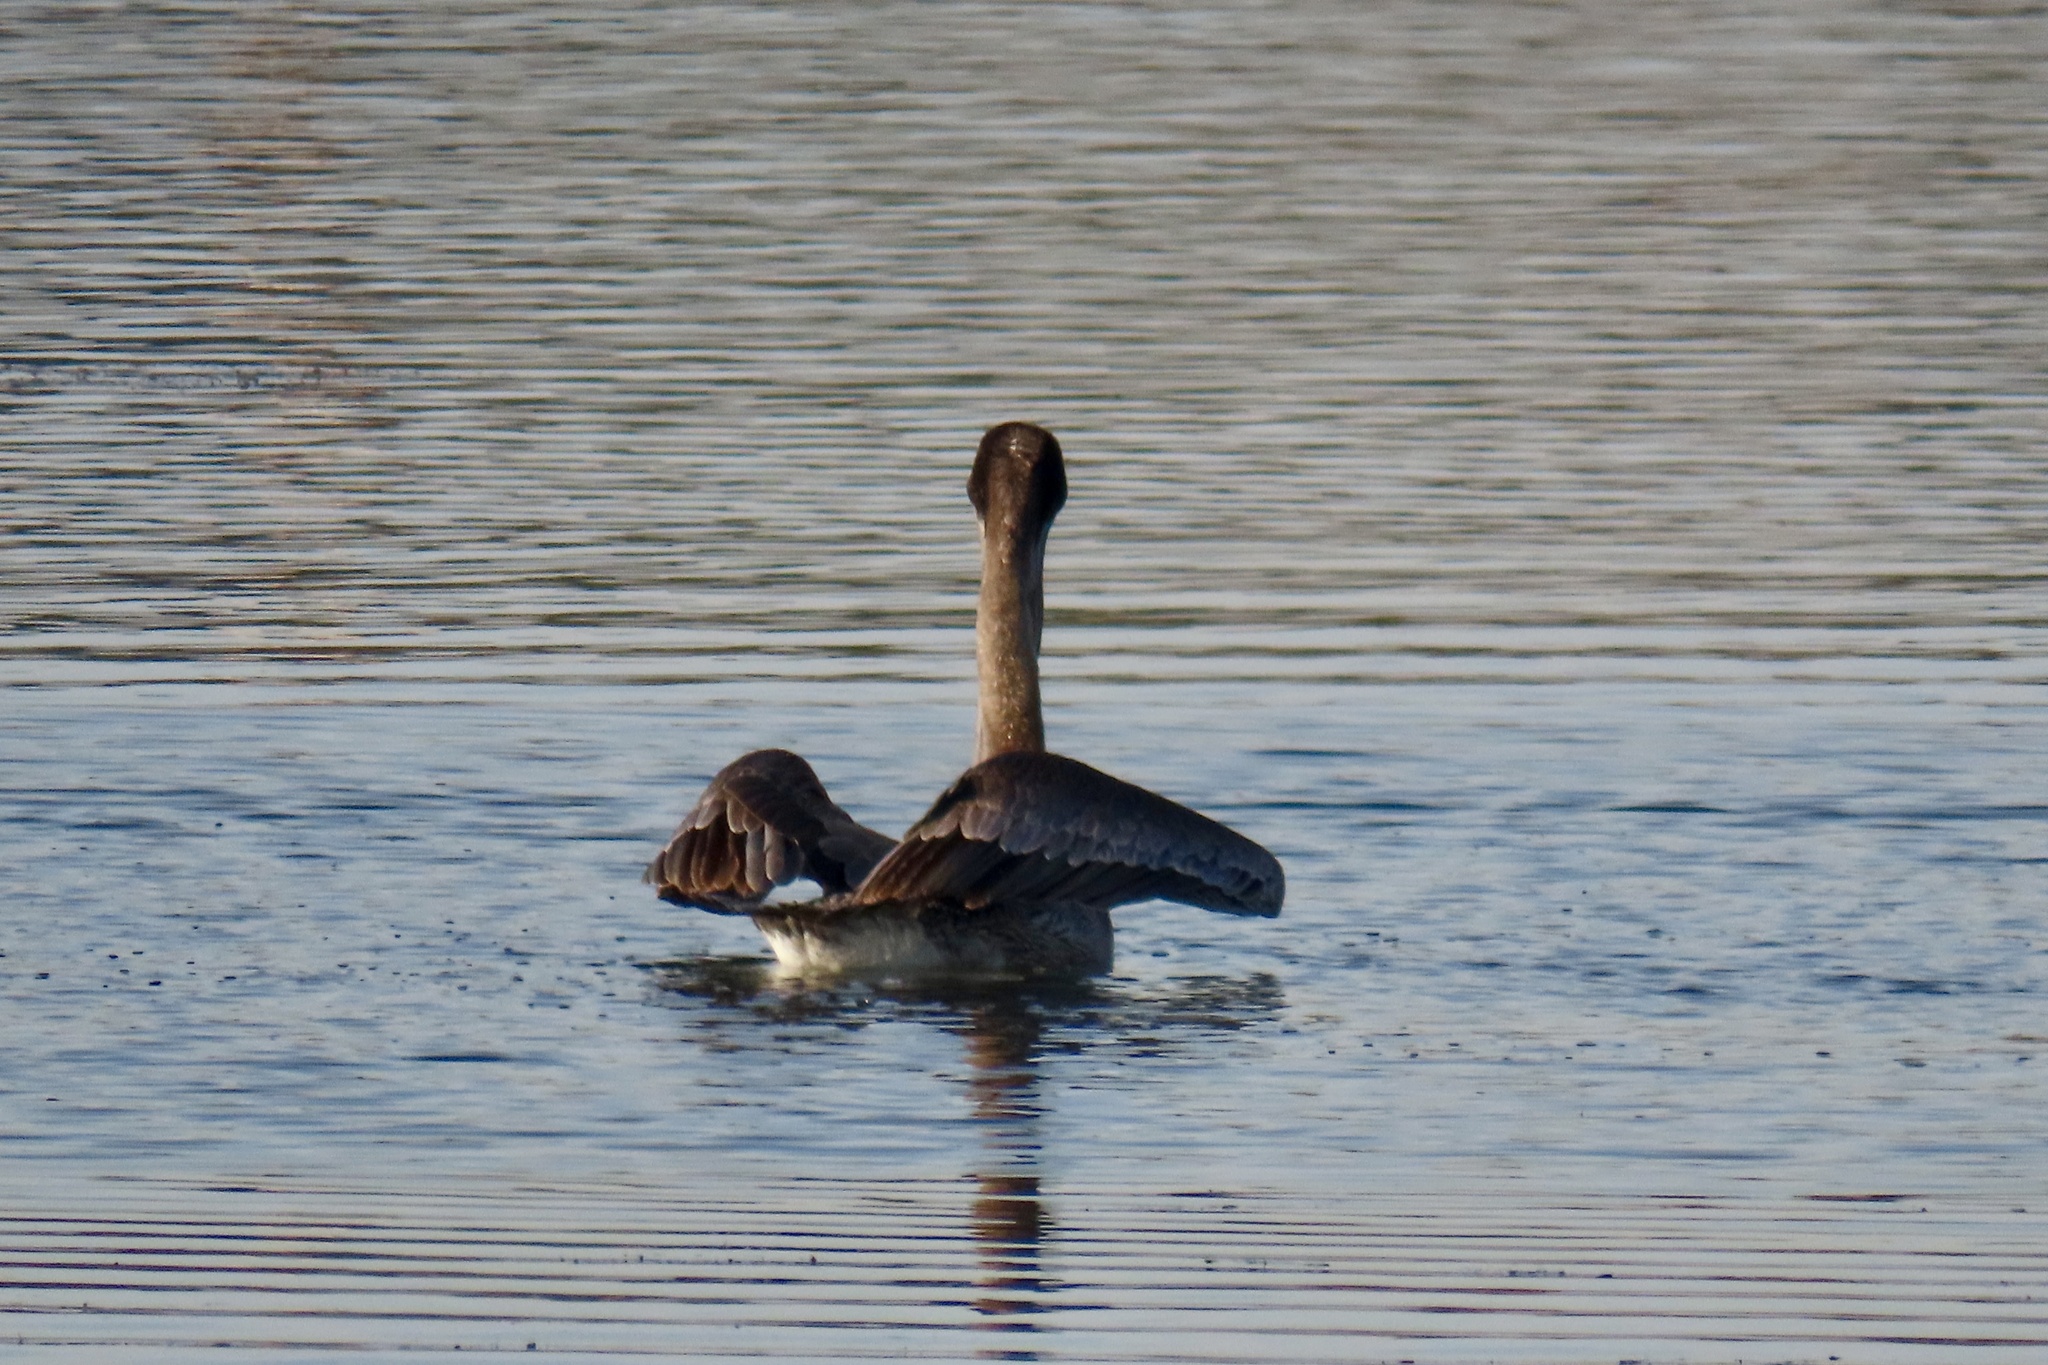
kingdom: Animalia
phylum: Chordata
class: Aves
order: Pelecaniformes
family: Pelecanidae
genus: Pelecanus
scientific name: Pelecanus occidentalis
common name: Brown pelican
